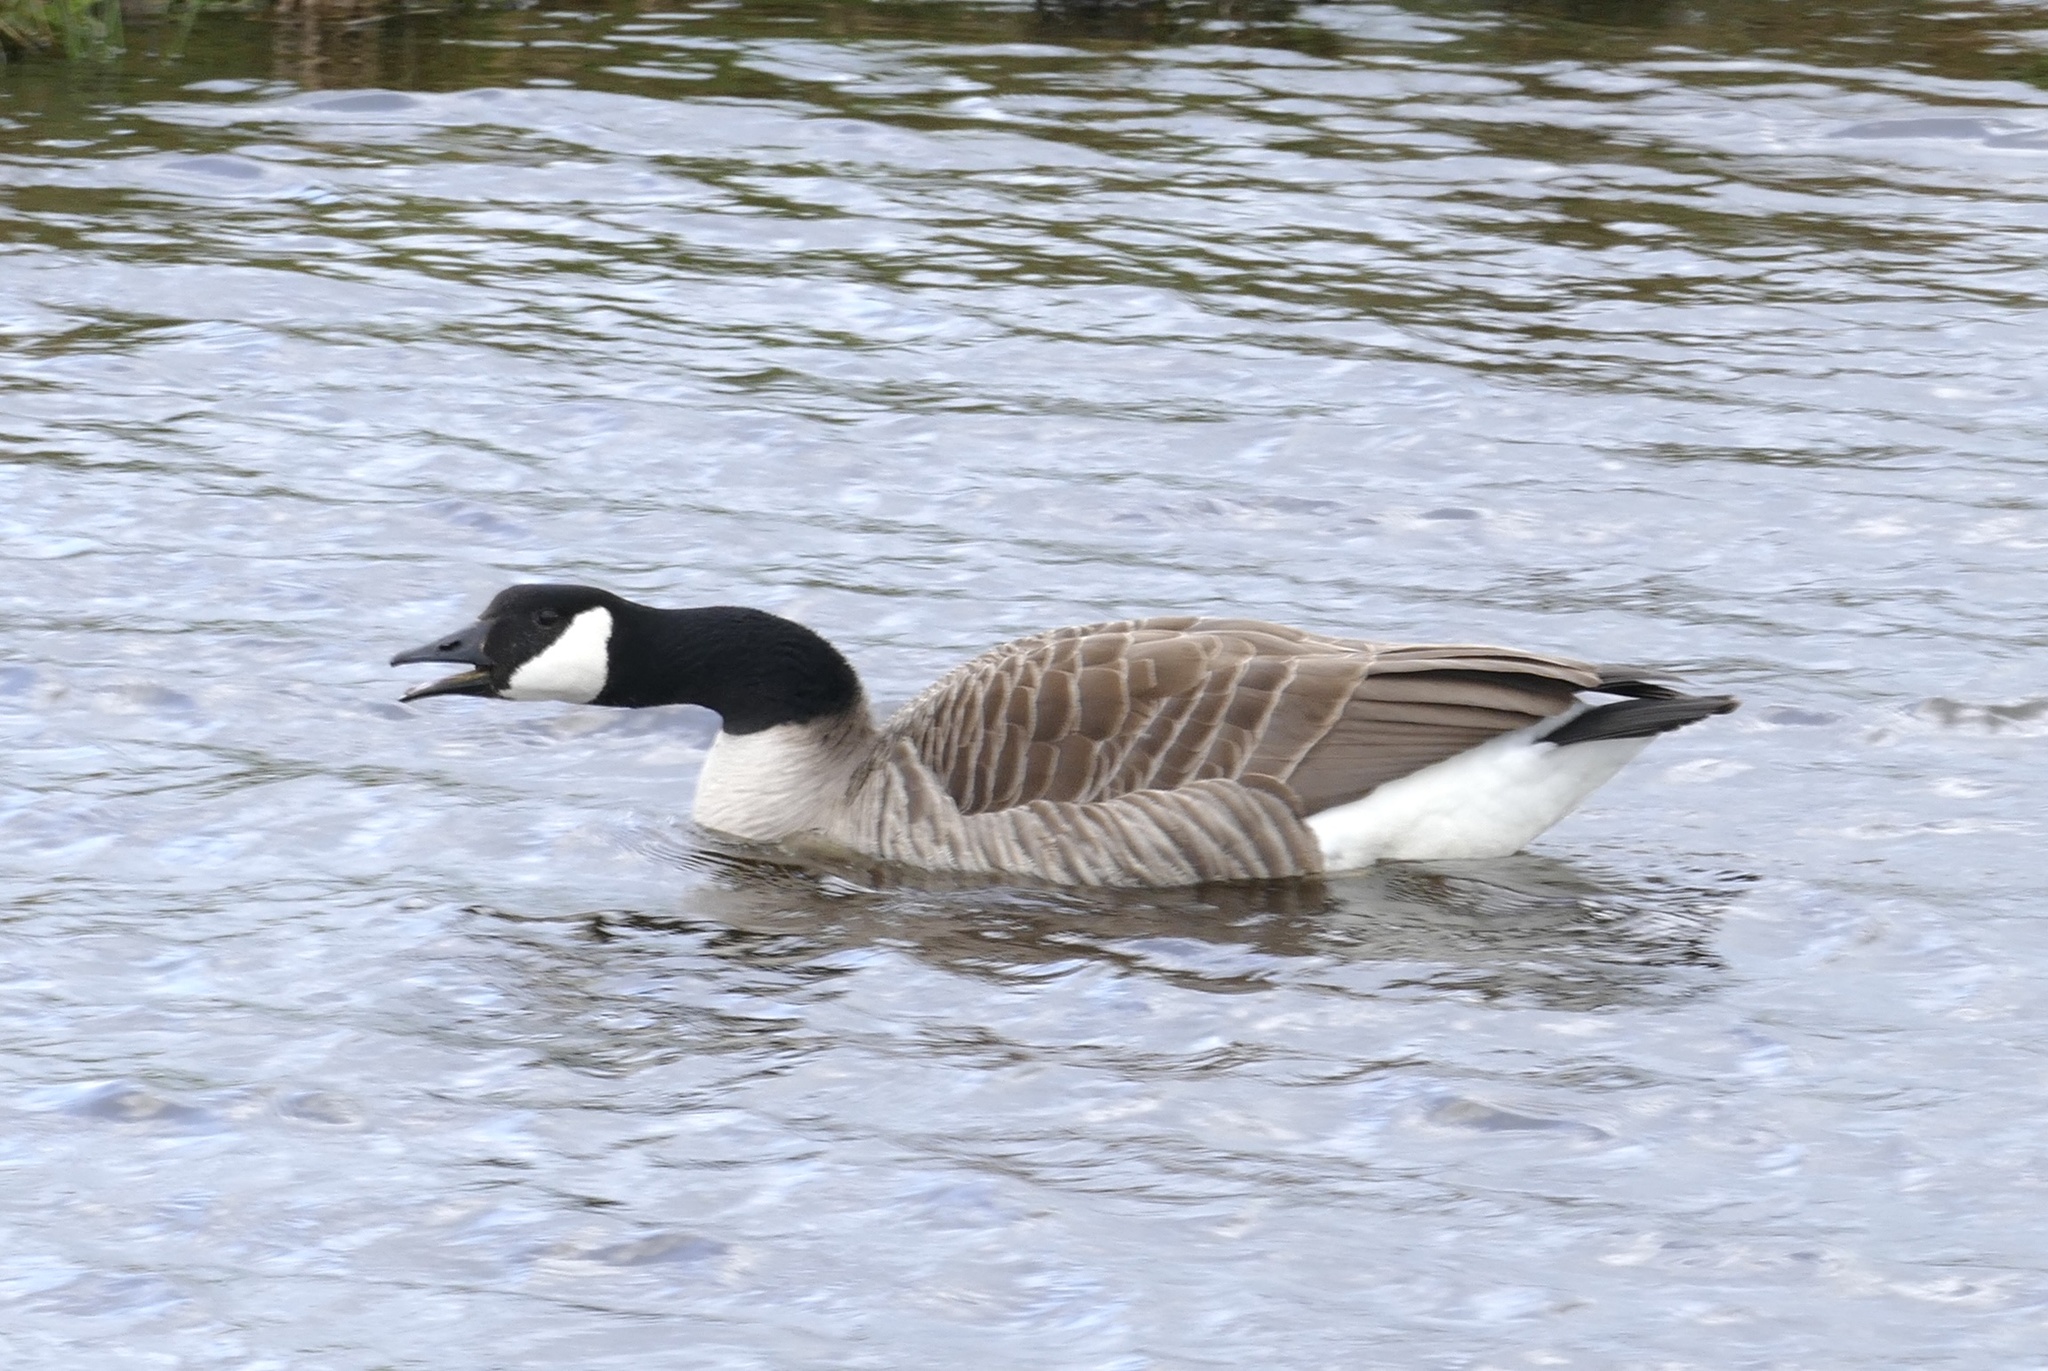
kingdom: Animalia
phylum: Chordata
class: Aves
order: Anseriformes
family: Anatidae
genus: Branta
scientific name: Branta canadensis
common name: Canada goose
